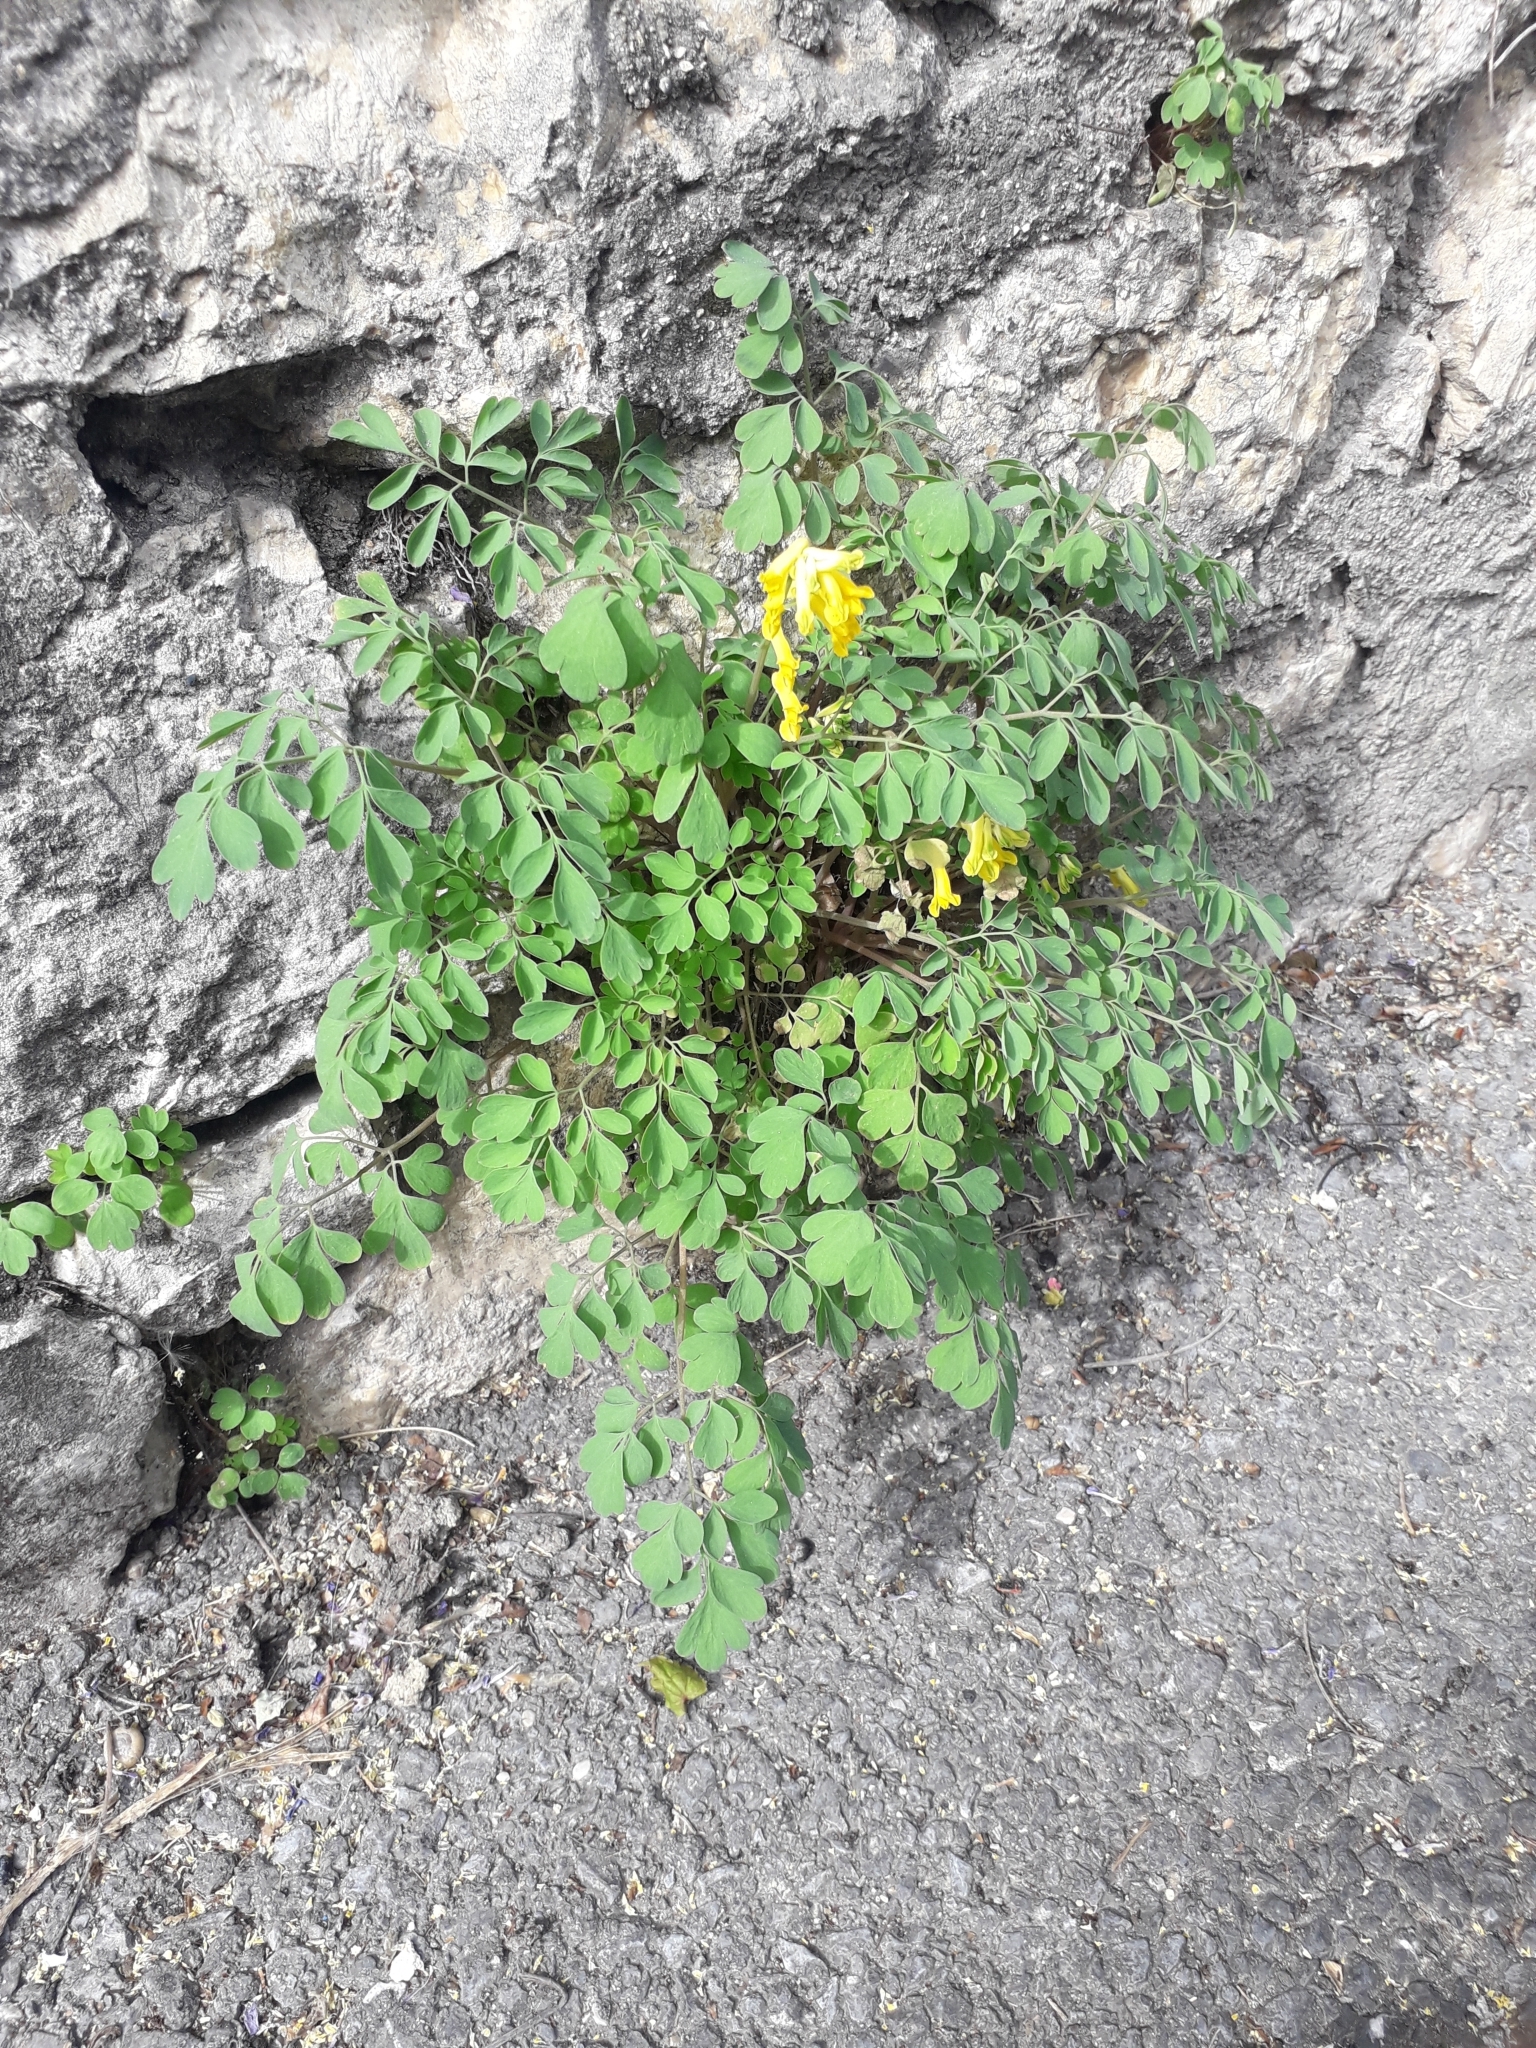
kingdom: Plantae
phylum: Tracheophyta
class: Magnoliopsida
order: Ranunculales
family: Papaveraceae
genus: Pseudofumaria
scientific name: Pseudofumaria lutea
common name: Yellow corydalis
